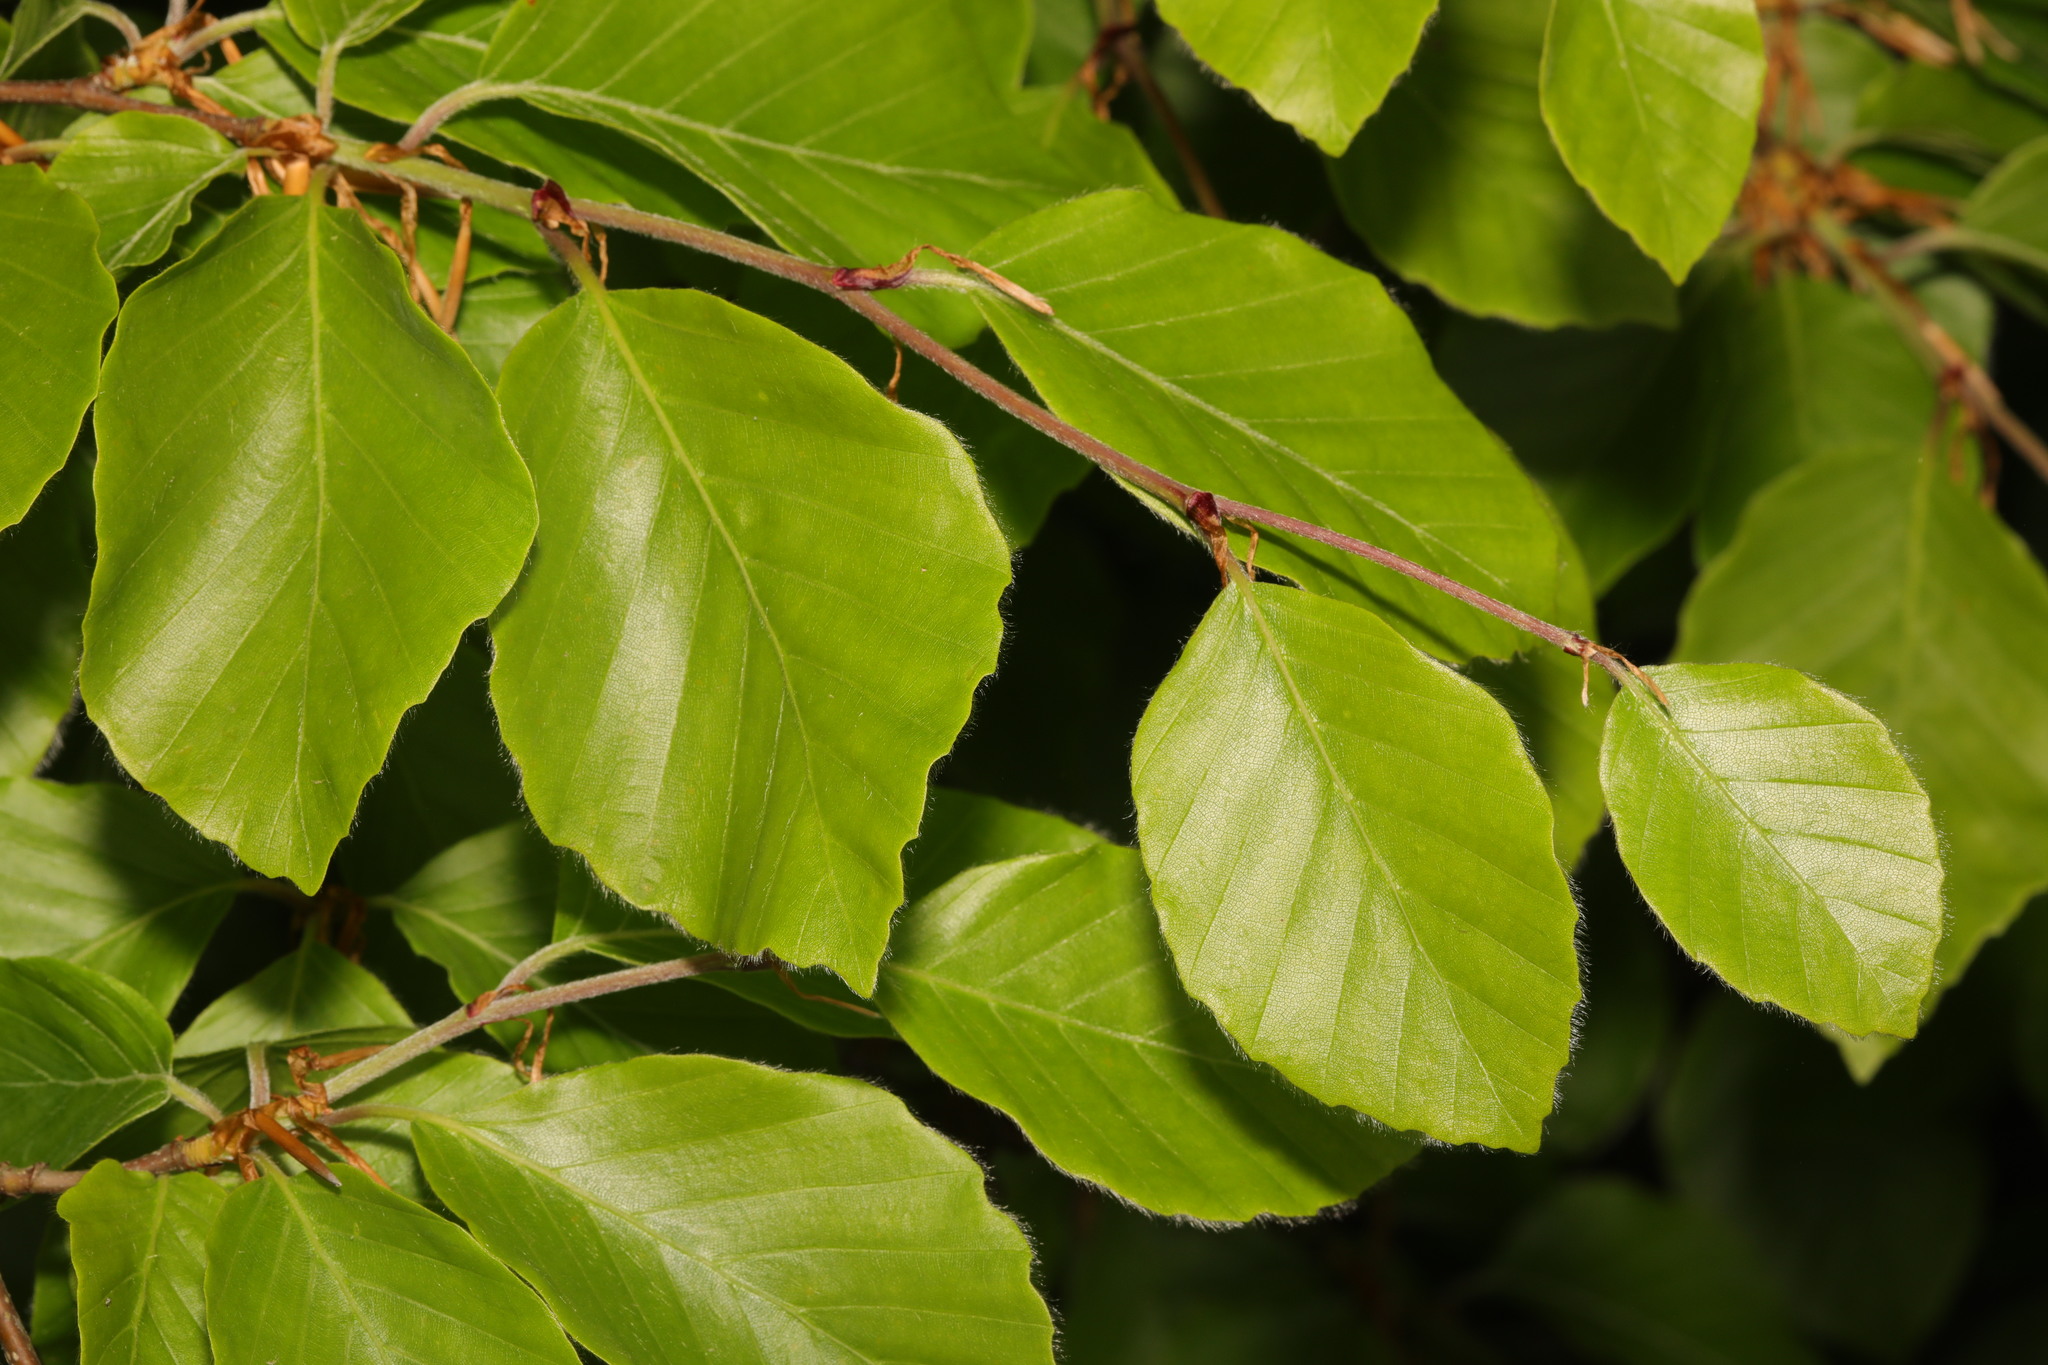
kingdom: Plantae
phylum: Tracheophyta
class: Magnoliopsida
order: Fagales
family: Fagaceae
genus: Fagus
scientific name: Fagus sylvatica
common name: Beech
